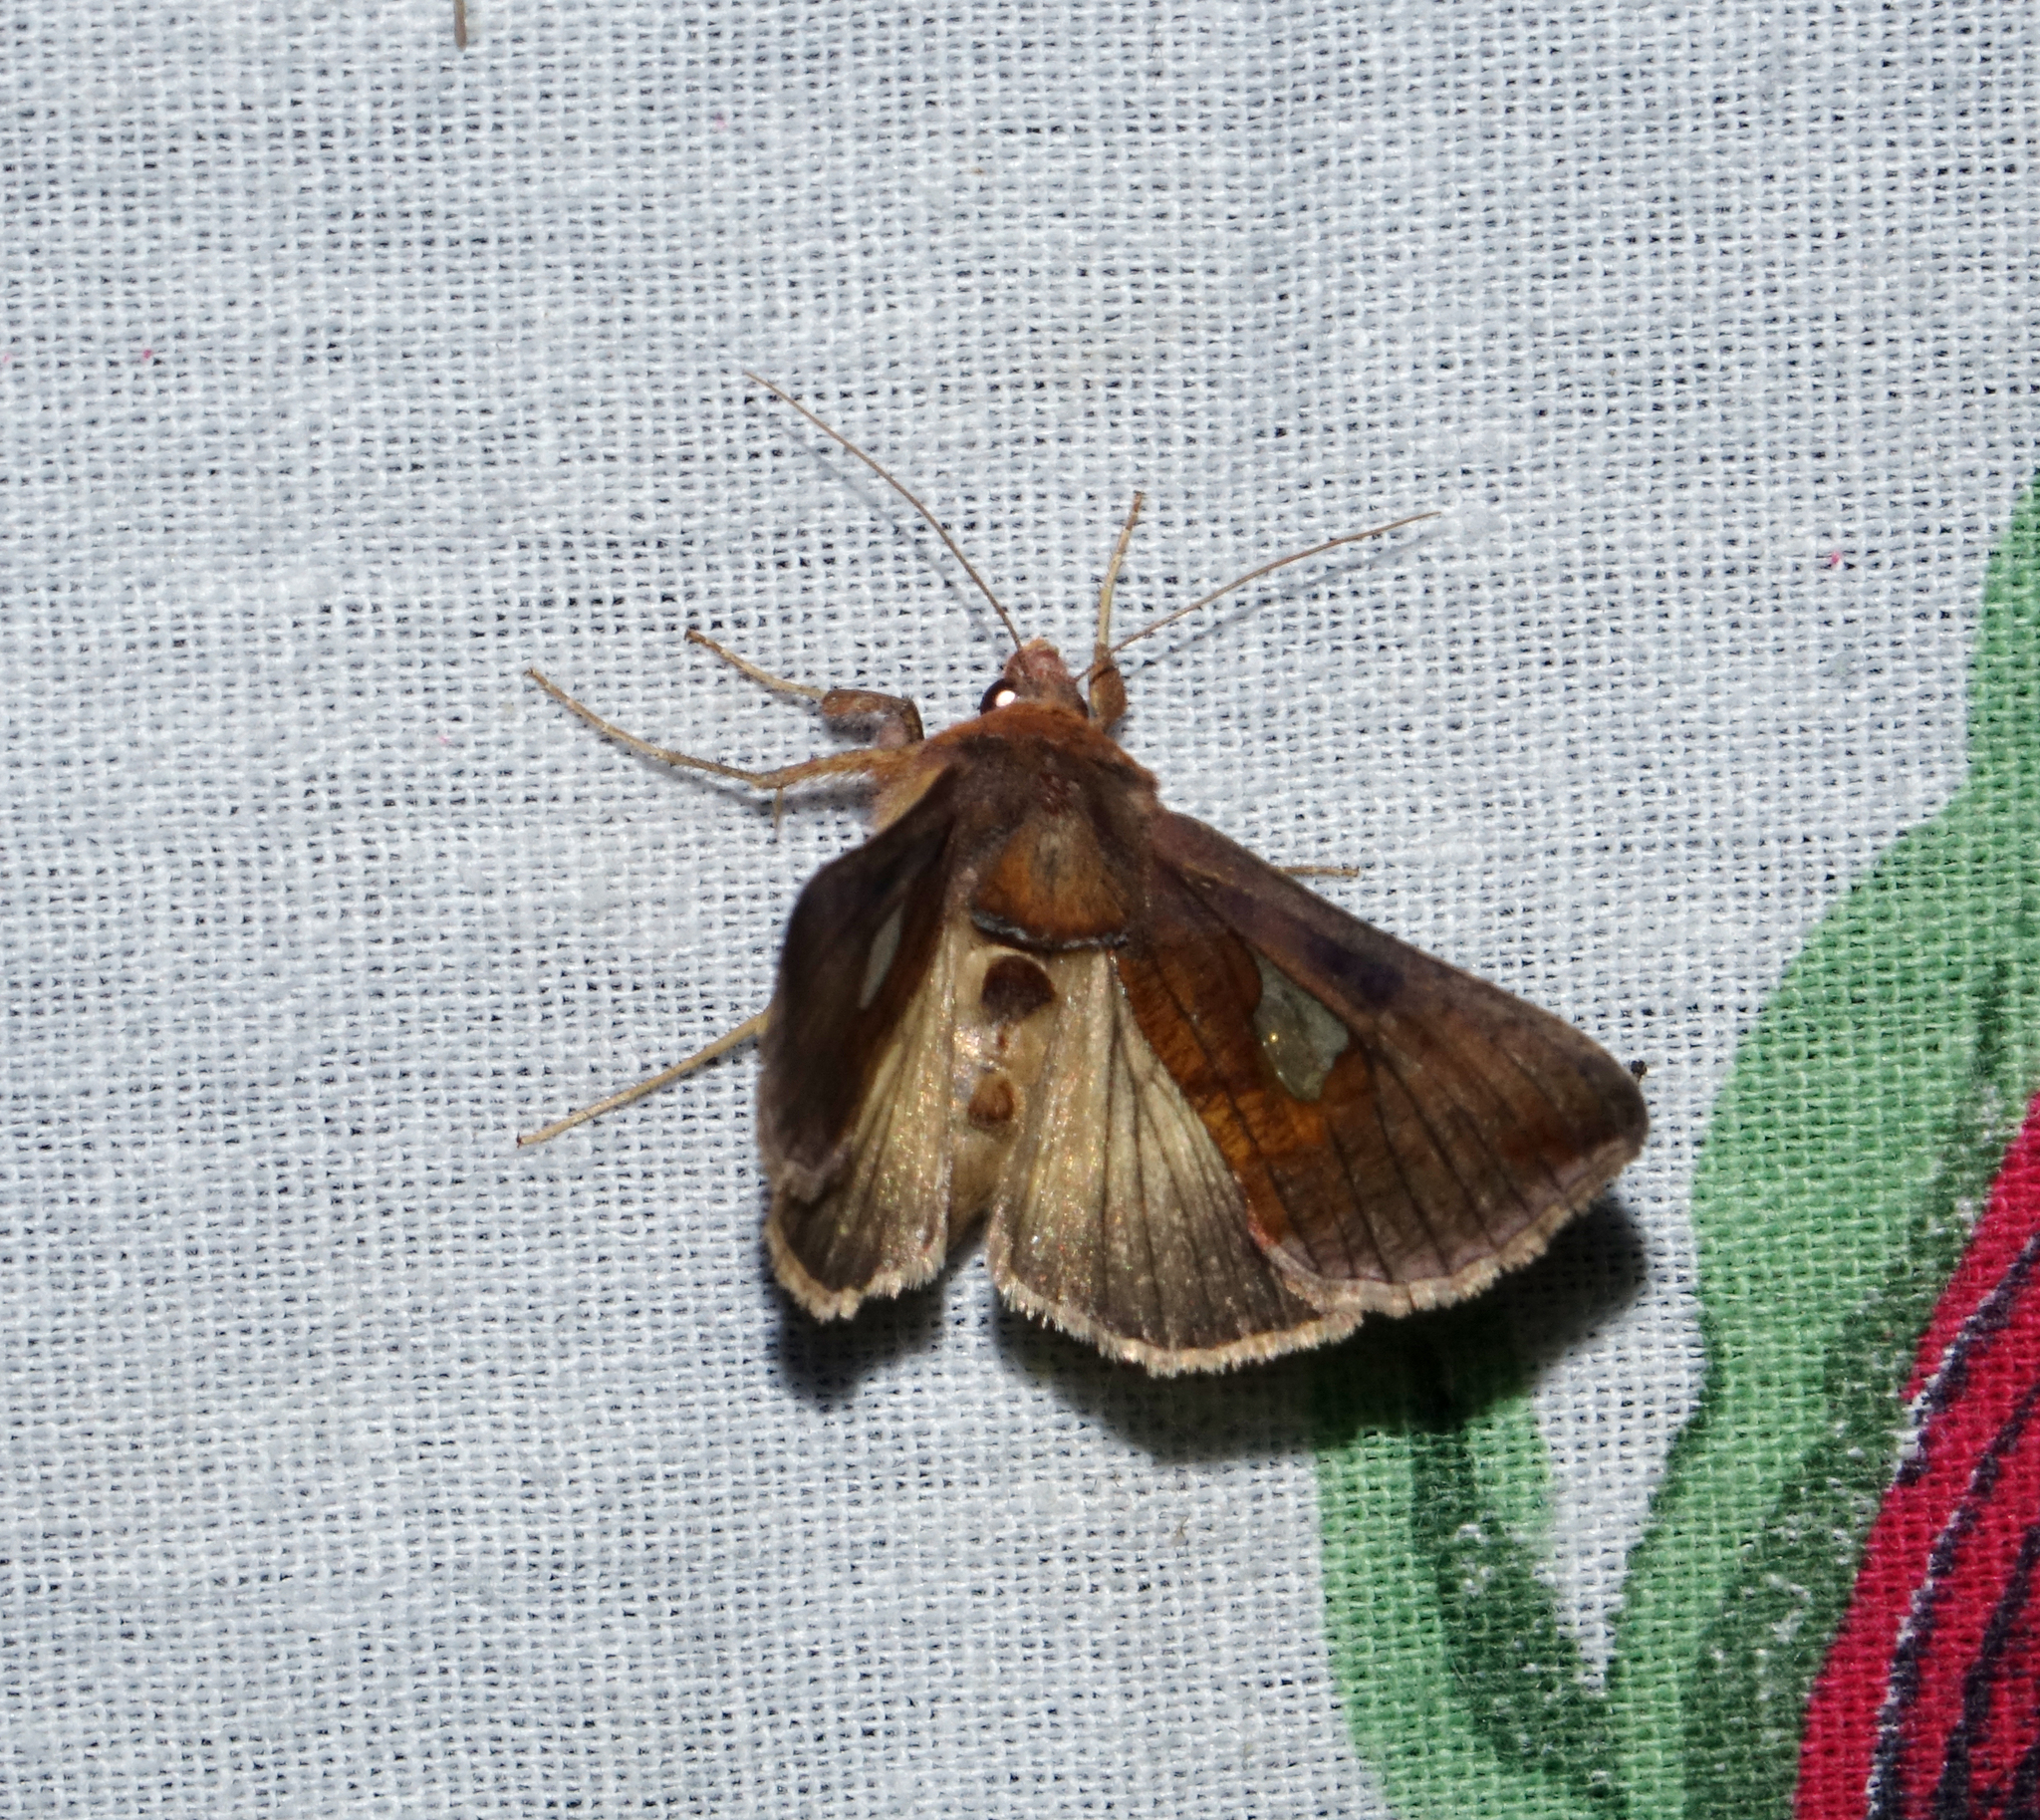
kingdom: Animalia
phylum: Arthropoda
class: Insecta
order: Lepidoptera
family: Noctuidae
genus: Autographa
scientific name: Autographa bractea
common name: Gold spangle
